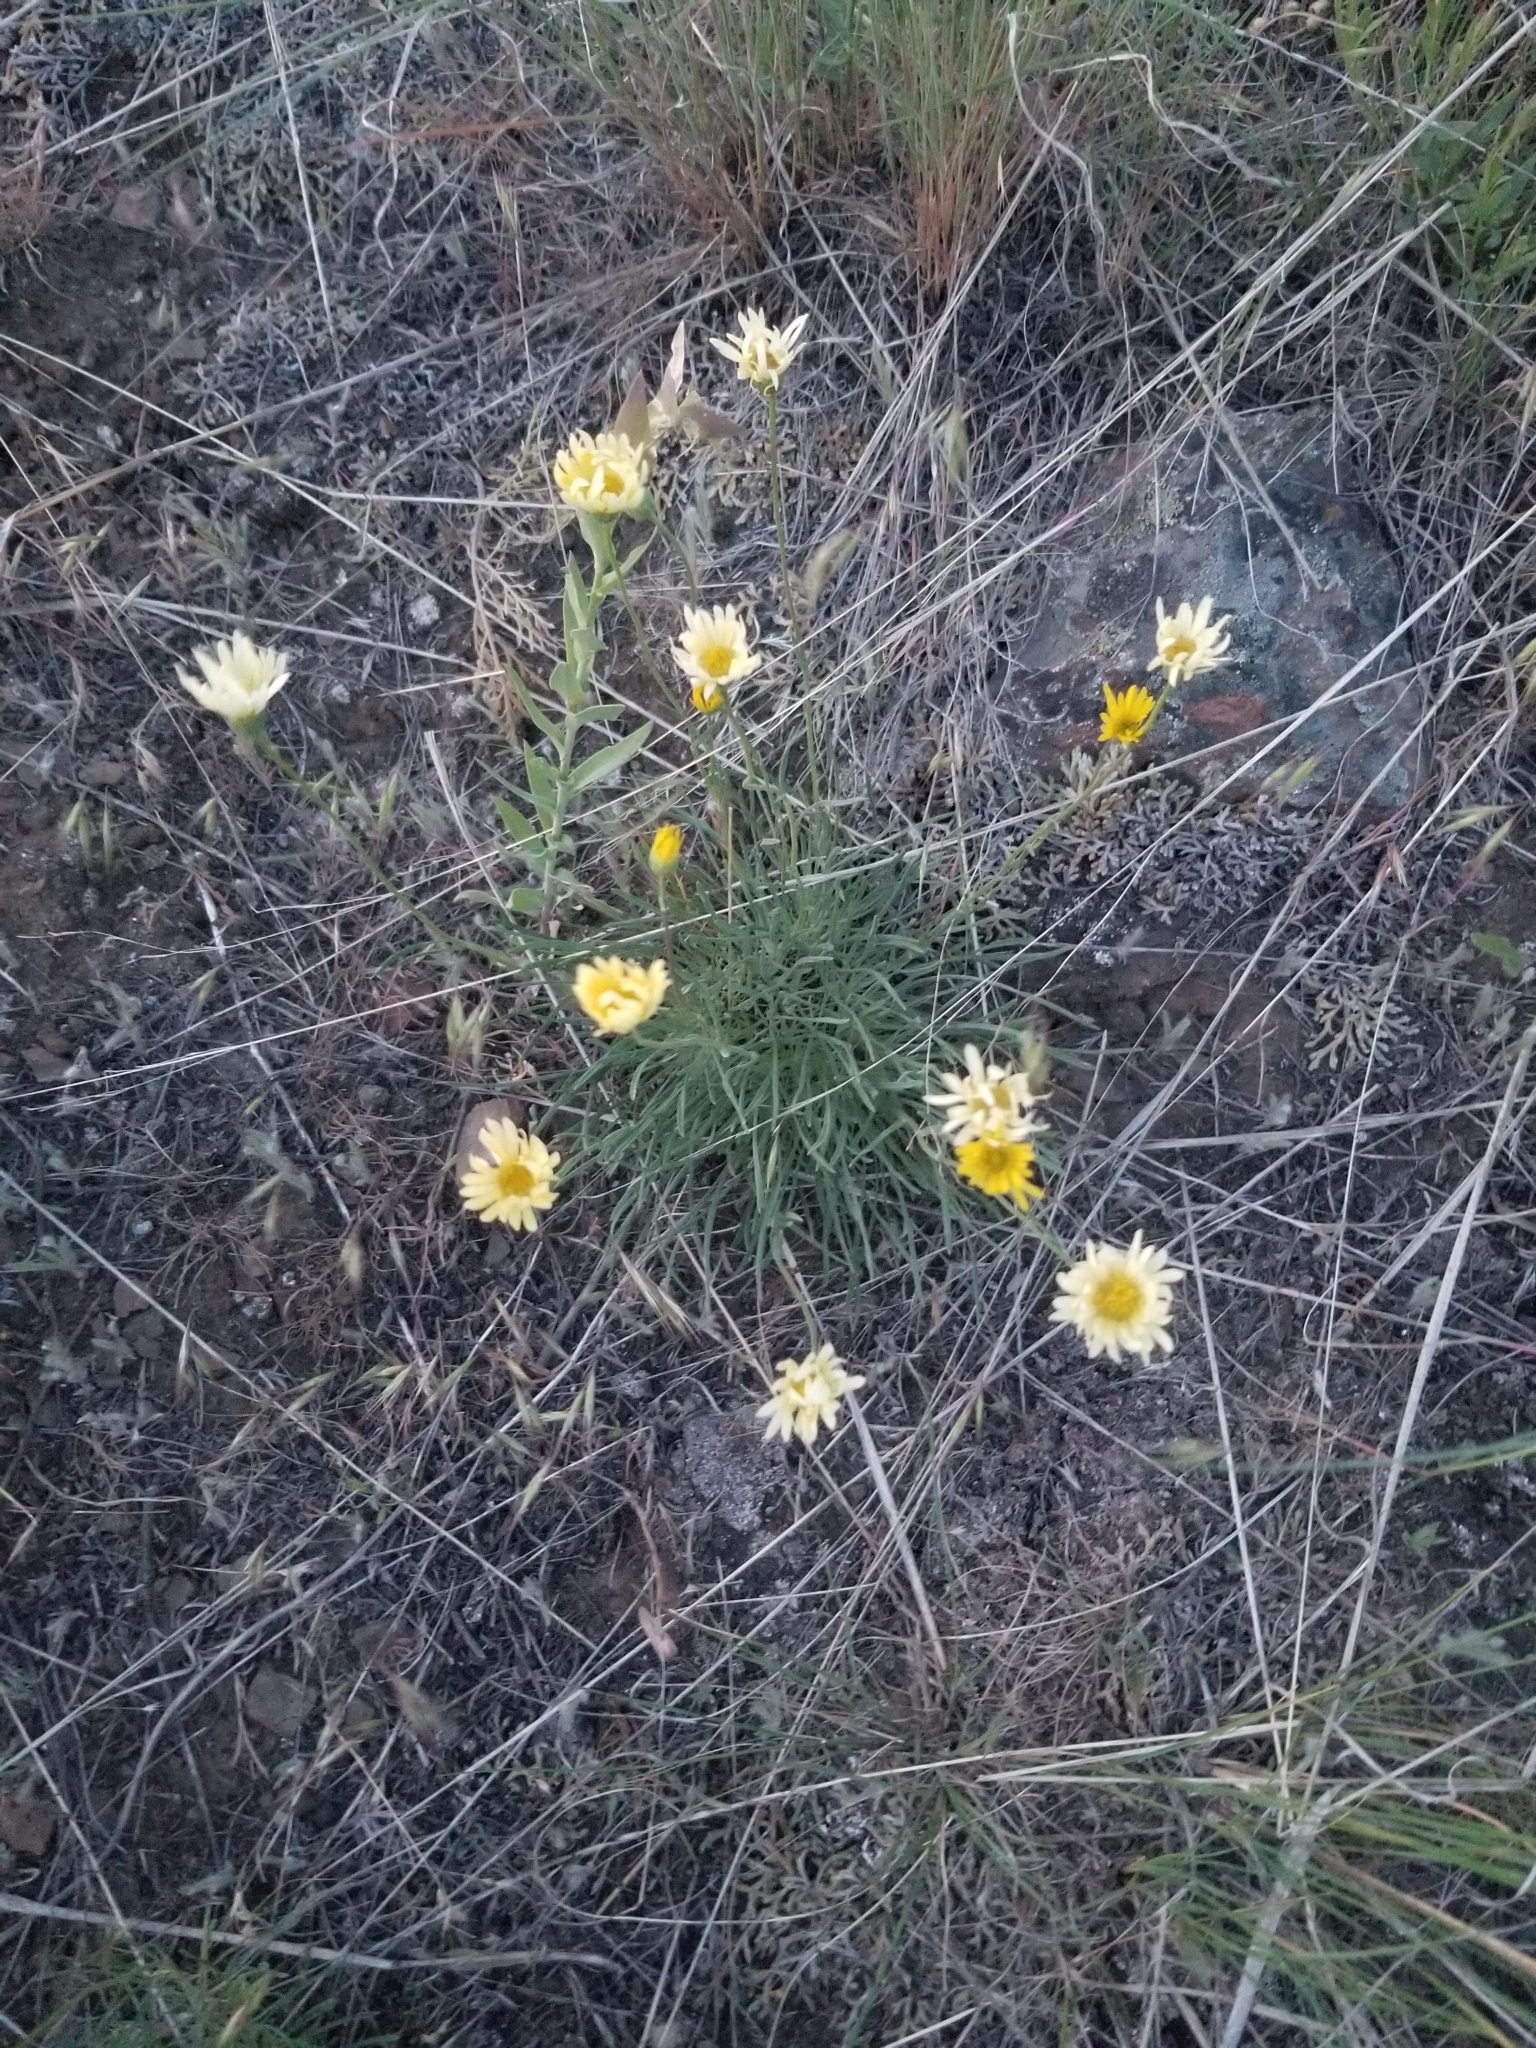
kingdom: Plantae
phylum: Tracheophyta
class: Magnoliopsida
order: Asterales
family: Asteraceae
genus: Erigeron
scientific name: Erigeron linearis
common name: Desert yellow fleabane
